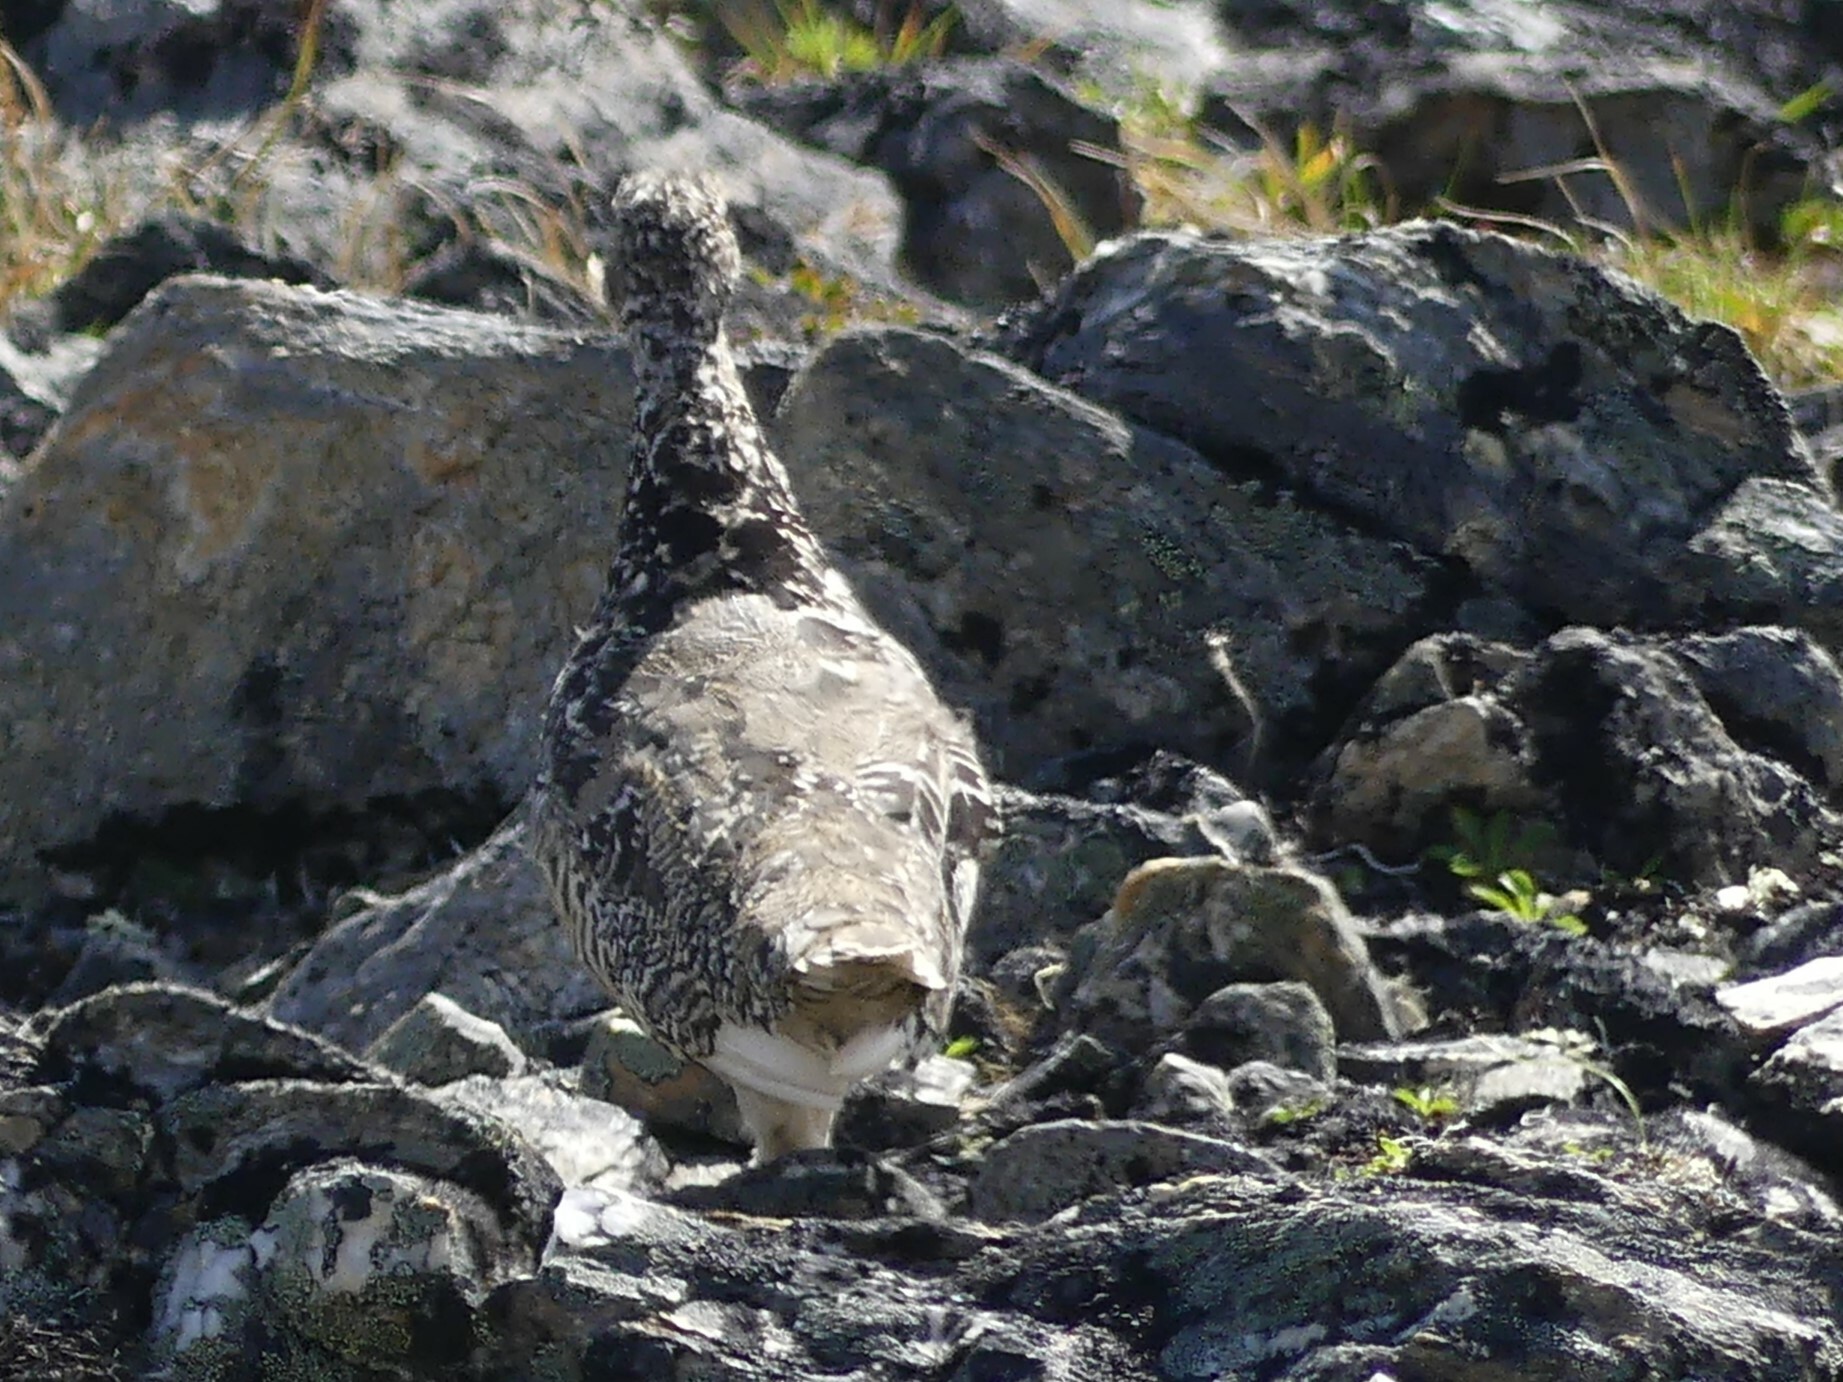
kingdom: Animalia
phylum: Chordata
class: Aves
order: Galliformes
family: Phasianidae
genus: Lagopus
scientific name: Lagopus leucura
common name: White-tailed ptarmigan
